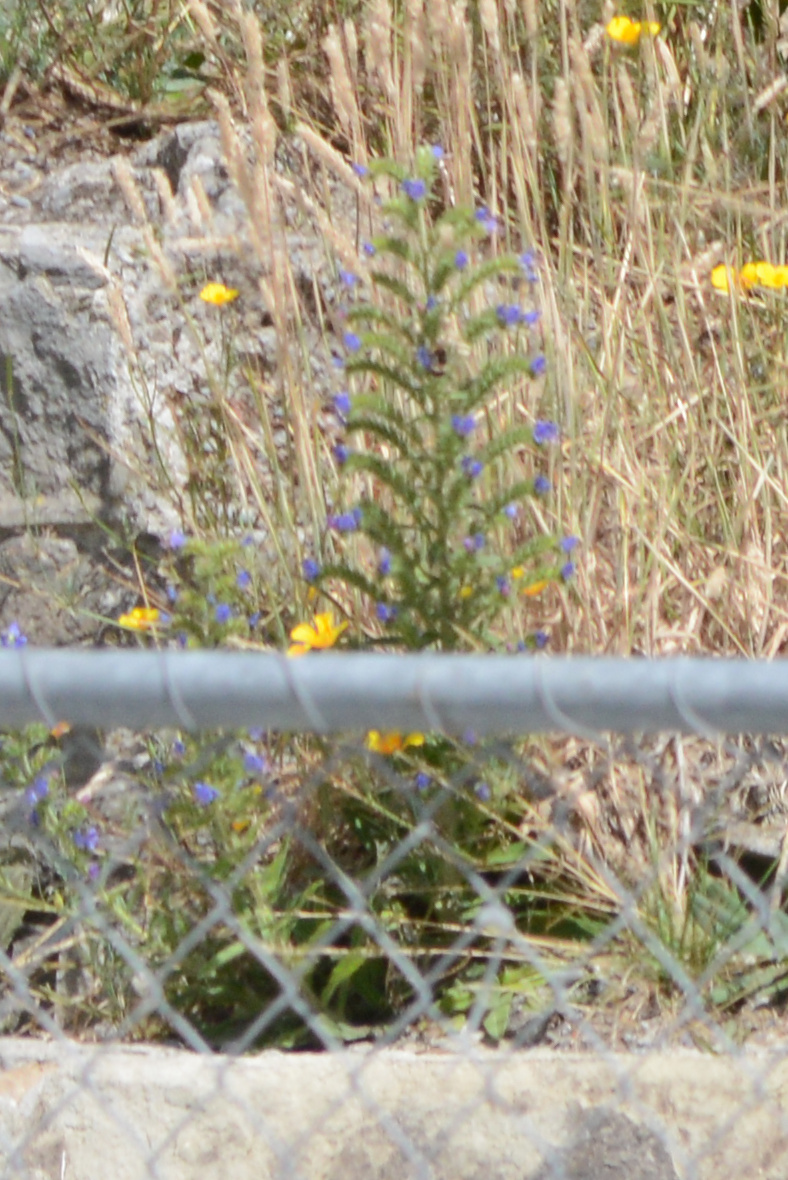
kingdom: Plantae
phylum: Tracheophyta
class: Magnoliopsida
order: Boraginales
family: Boraginaceae
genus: Echium
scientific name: Echium vulgare
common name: Common viper's bugloss
